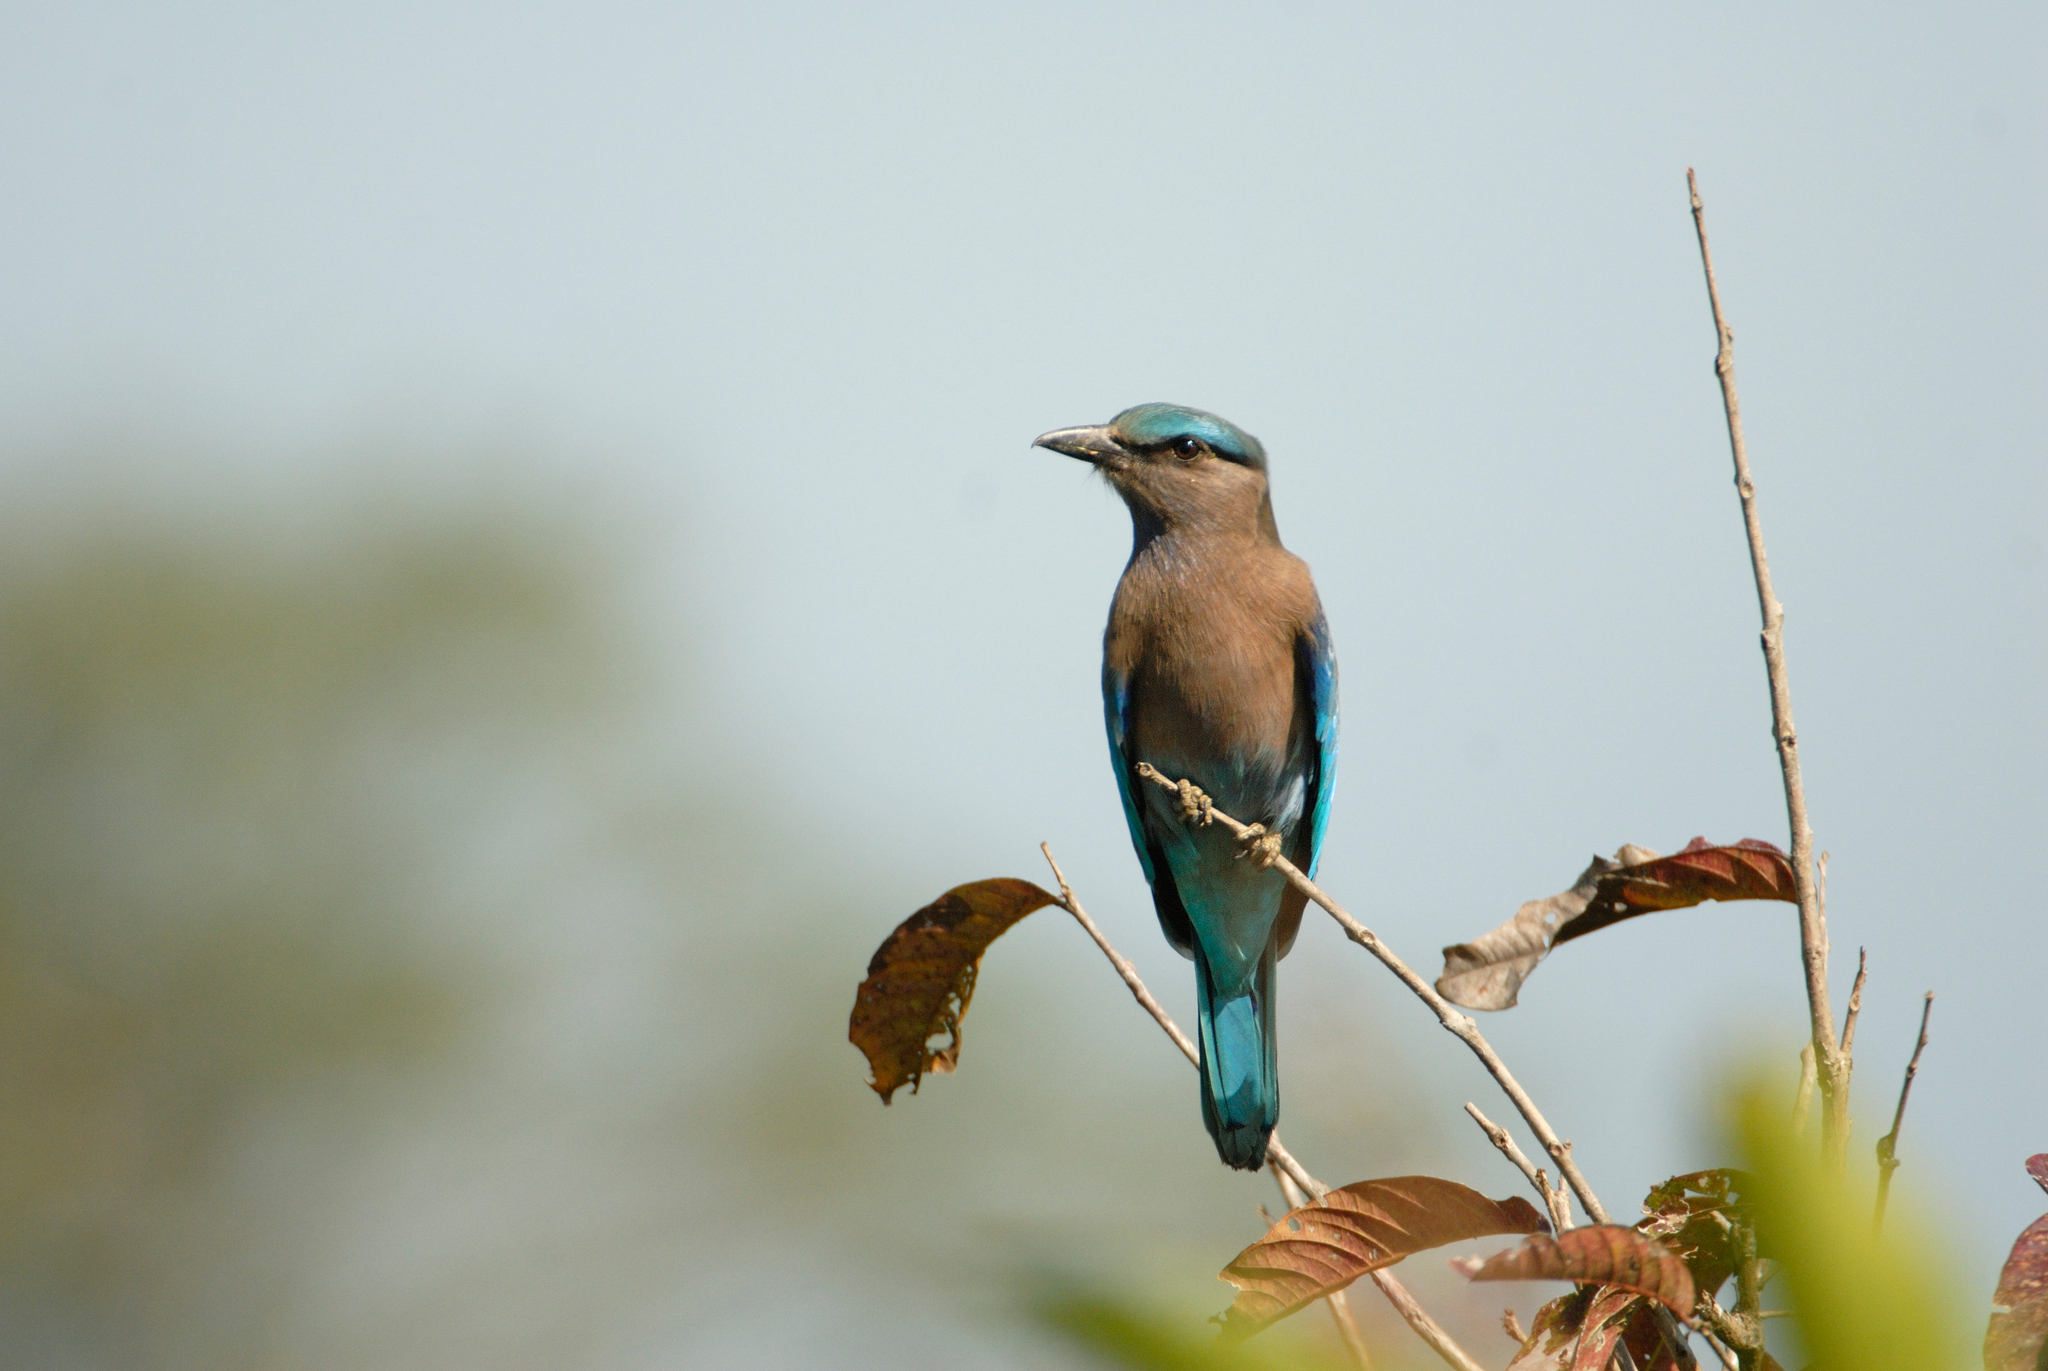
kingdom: Animalia
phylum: Chordata
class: Aves
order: Coraciiformes
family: Coraciidae
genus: Coracias
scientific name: Coracias affinis
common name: Indochinese roller
